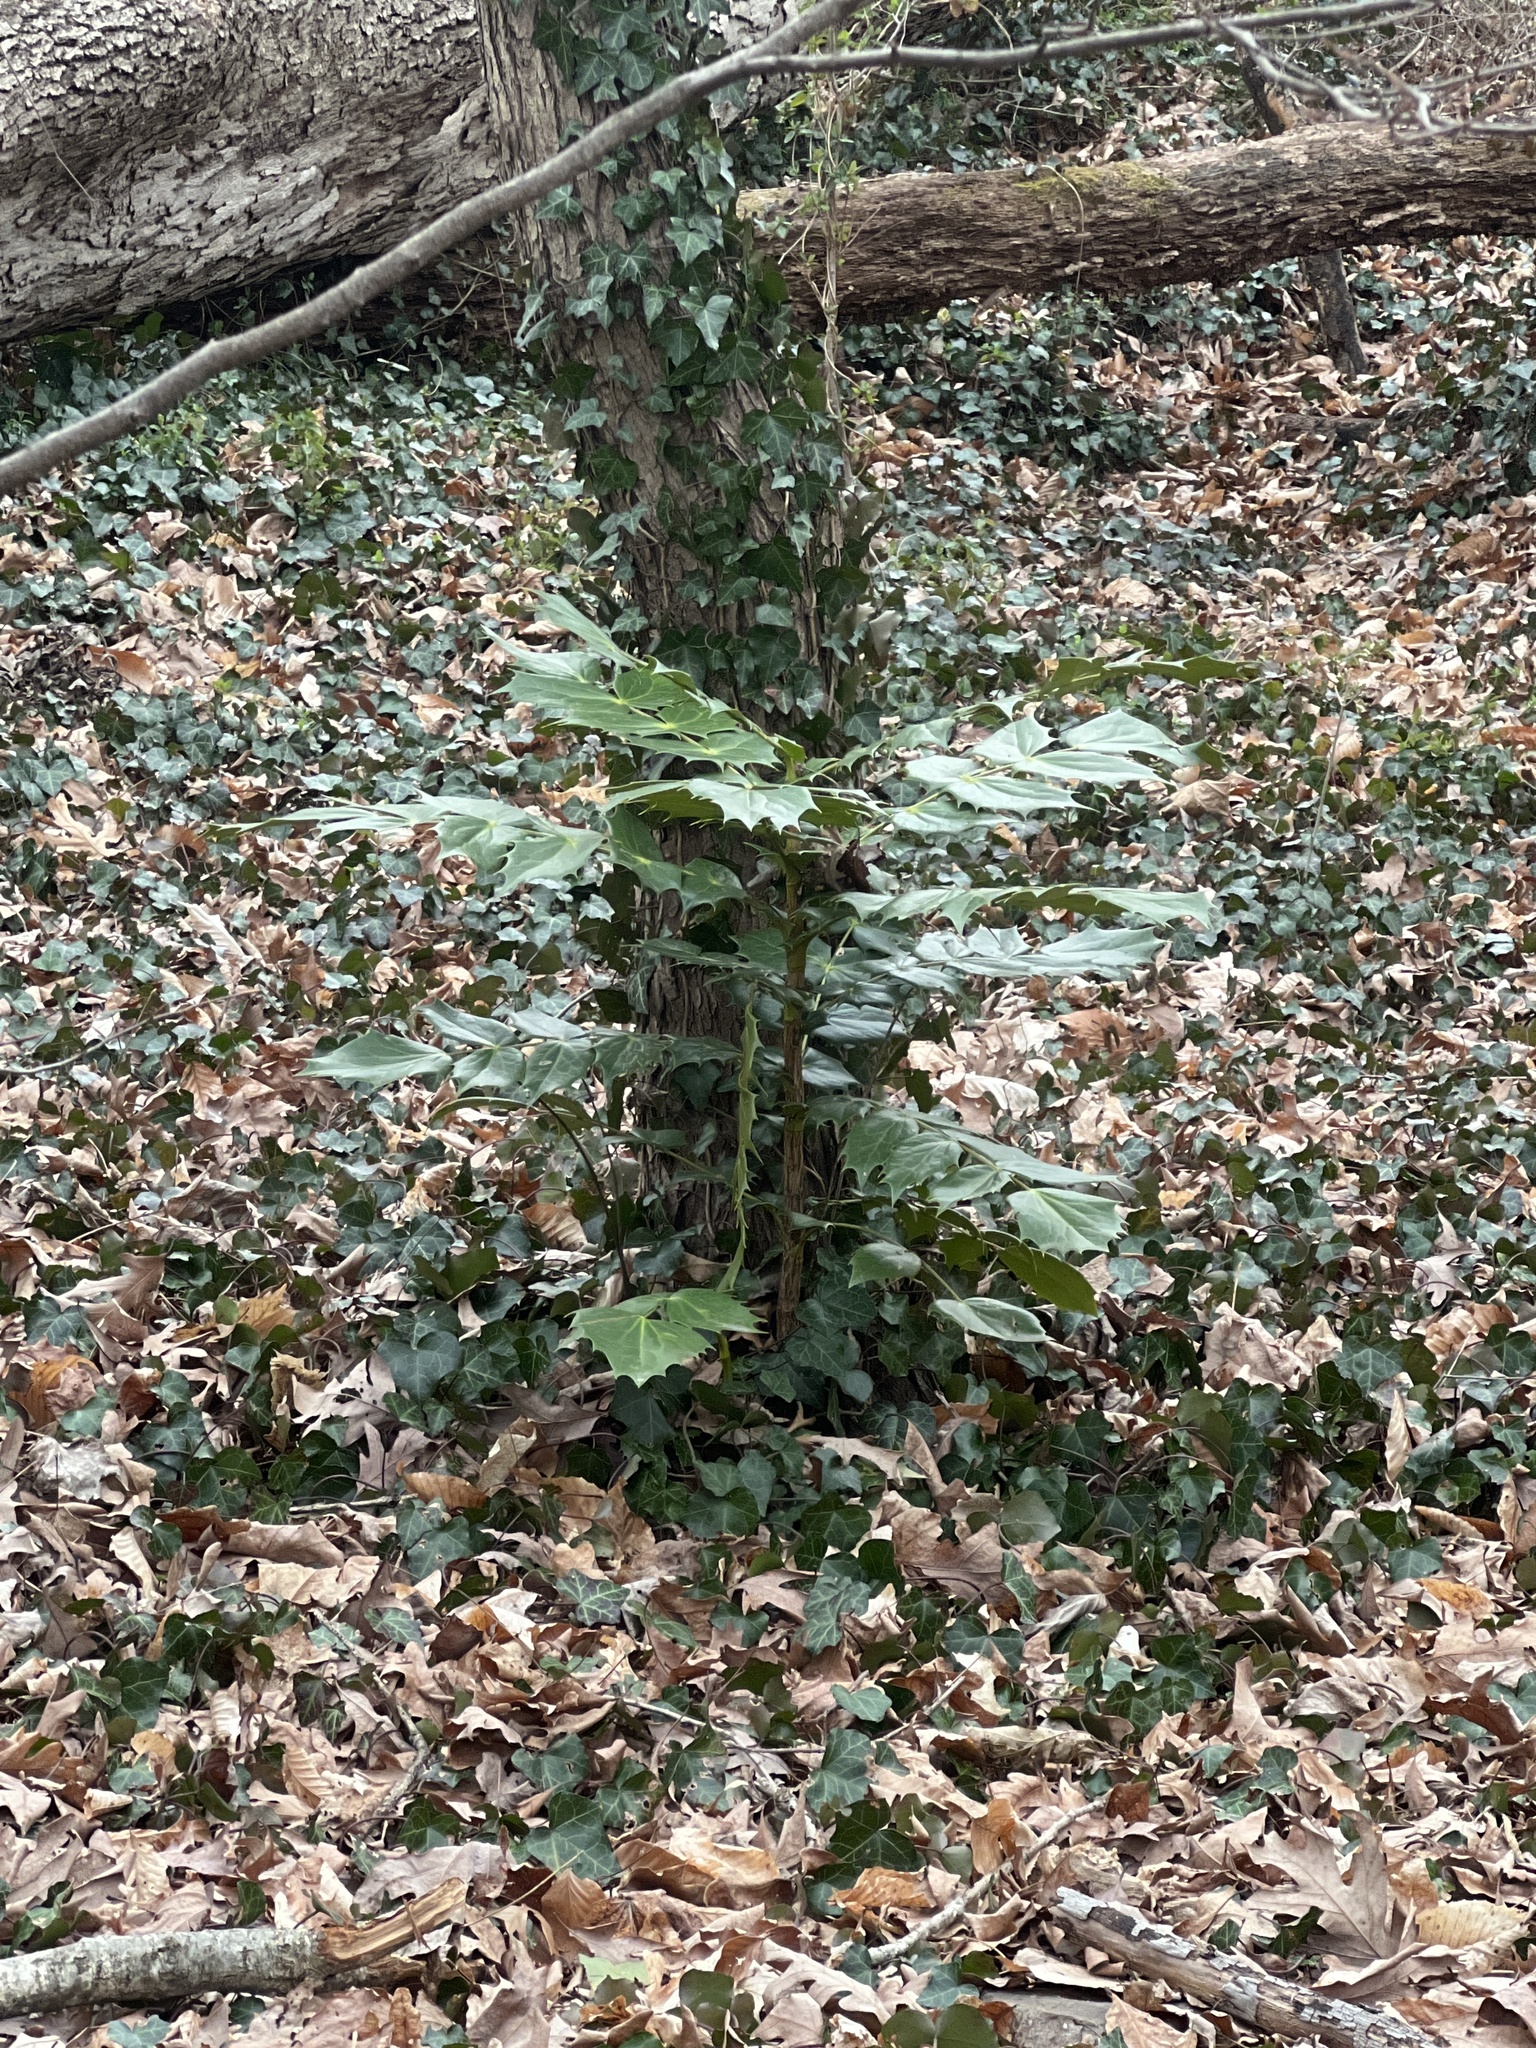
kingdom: Plantae
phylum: Tracheophyta
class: Magnoliopsida
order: Ranunculales
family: Berberidaceae
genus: Mahonia
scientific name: Mahonia bealei
